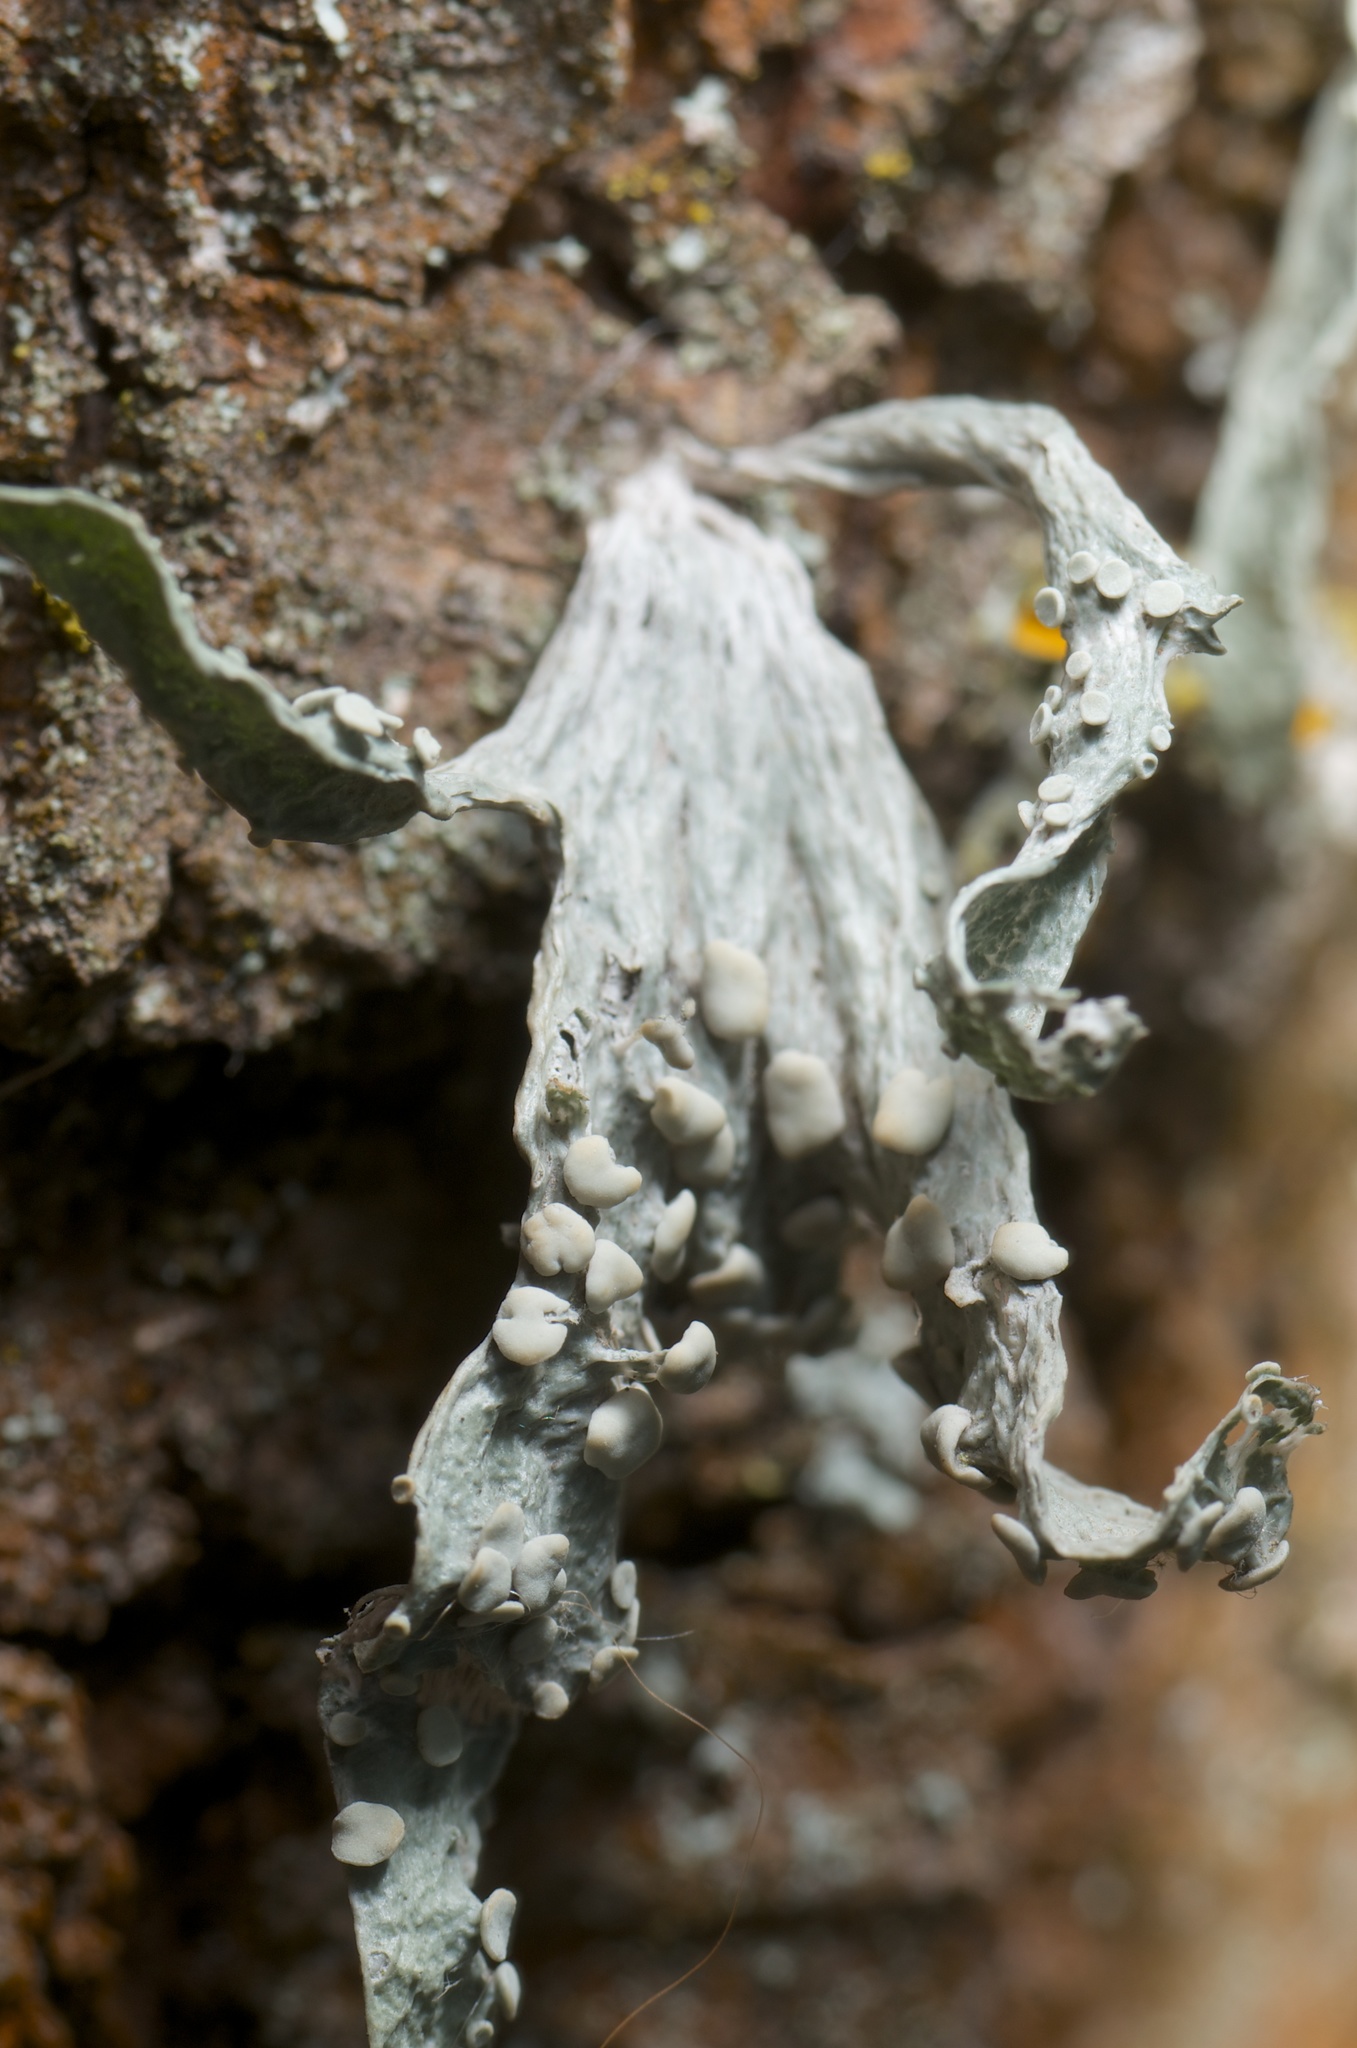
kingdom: Fungi
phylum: Ascomycota
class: Lecanoromycetes
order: Lecanorales
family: Ramalinaceae
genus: Ramalina
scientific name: Ramalina celastri
